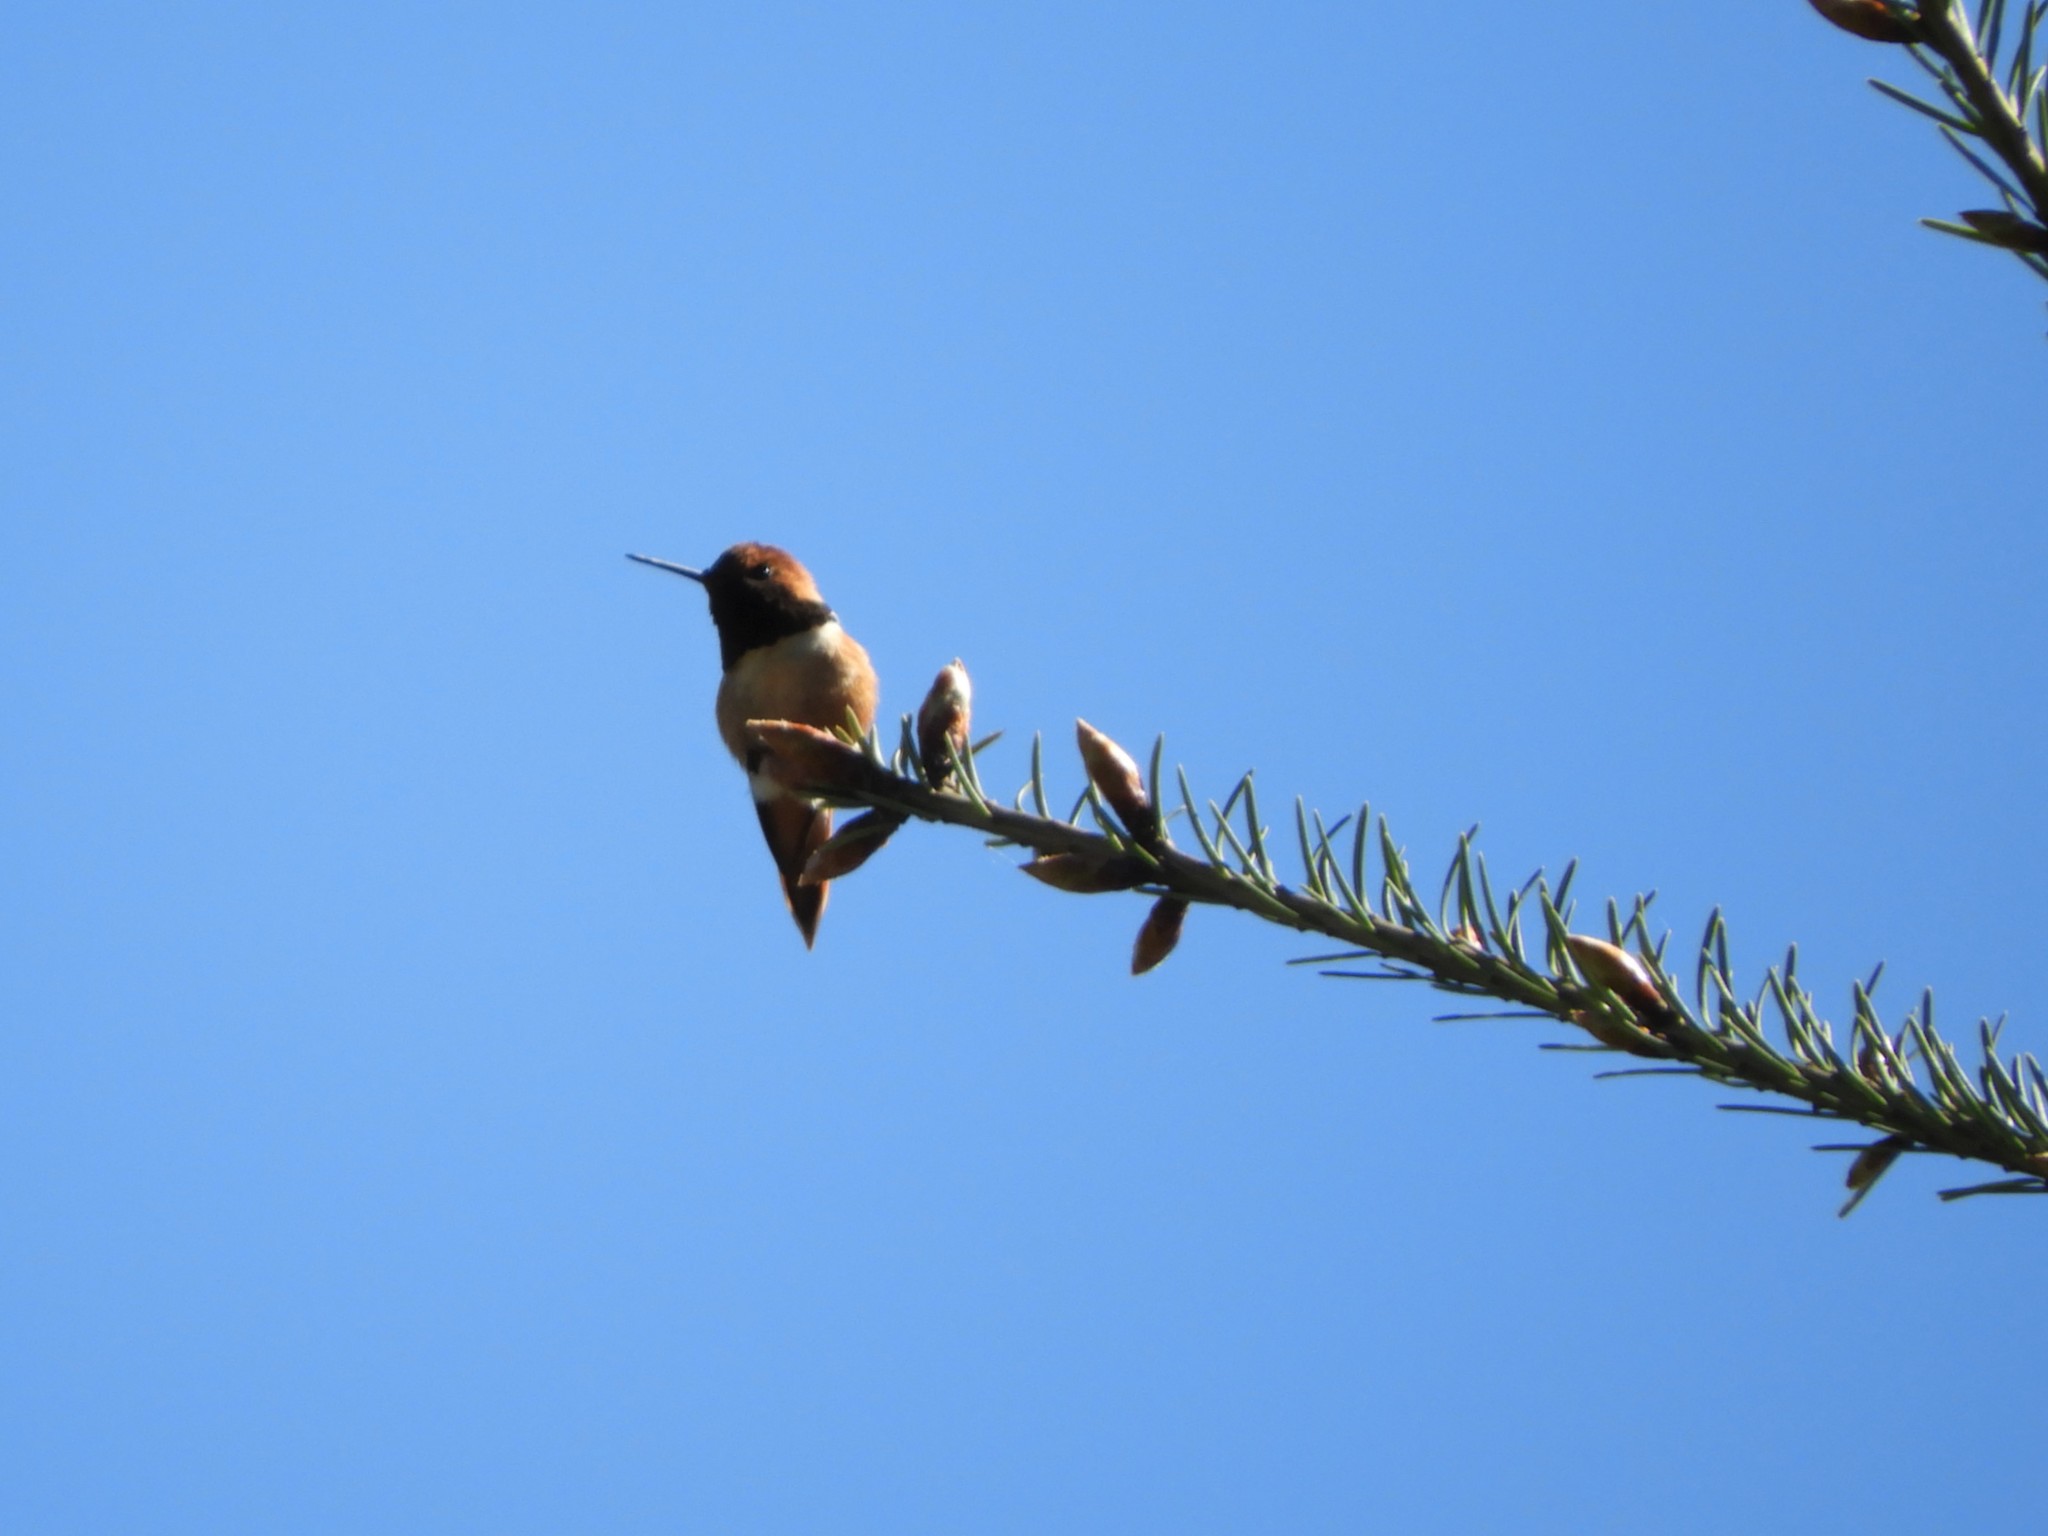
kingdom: Animalia
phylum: Chordata
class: Aves
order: Apodiformes
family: Trochilidae
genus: Selasphorus
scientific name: Selasphorus rufus
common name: Rufous hummingbird
